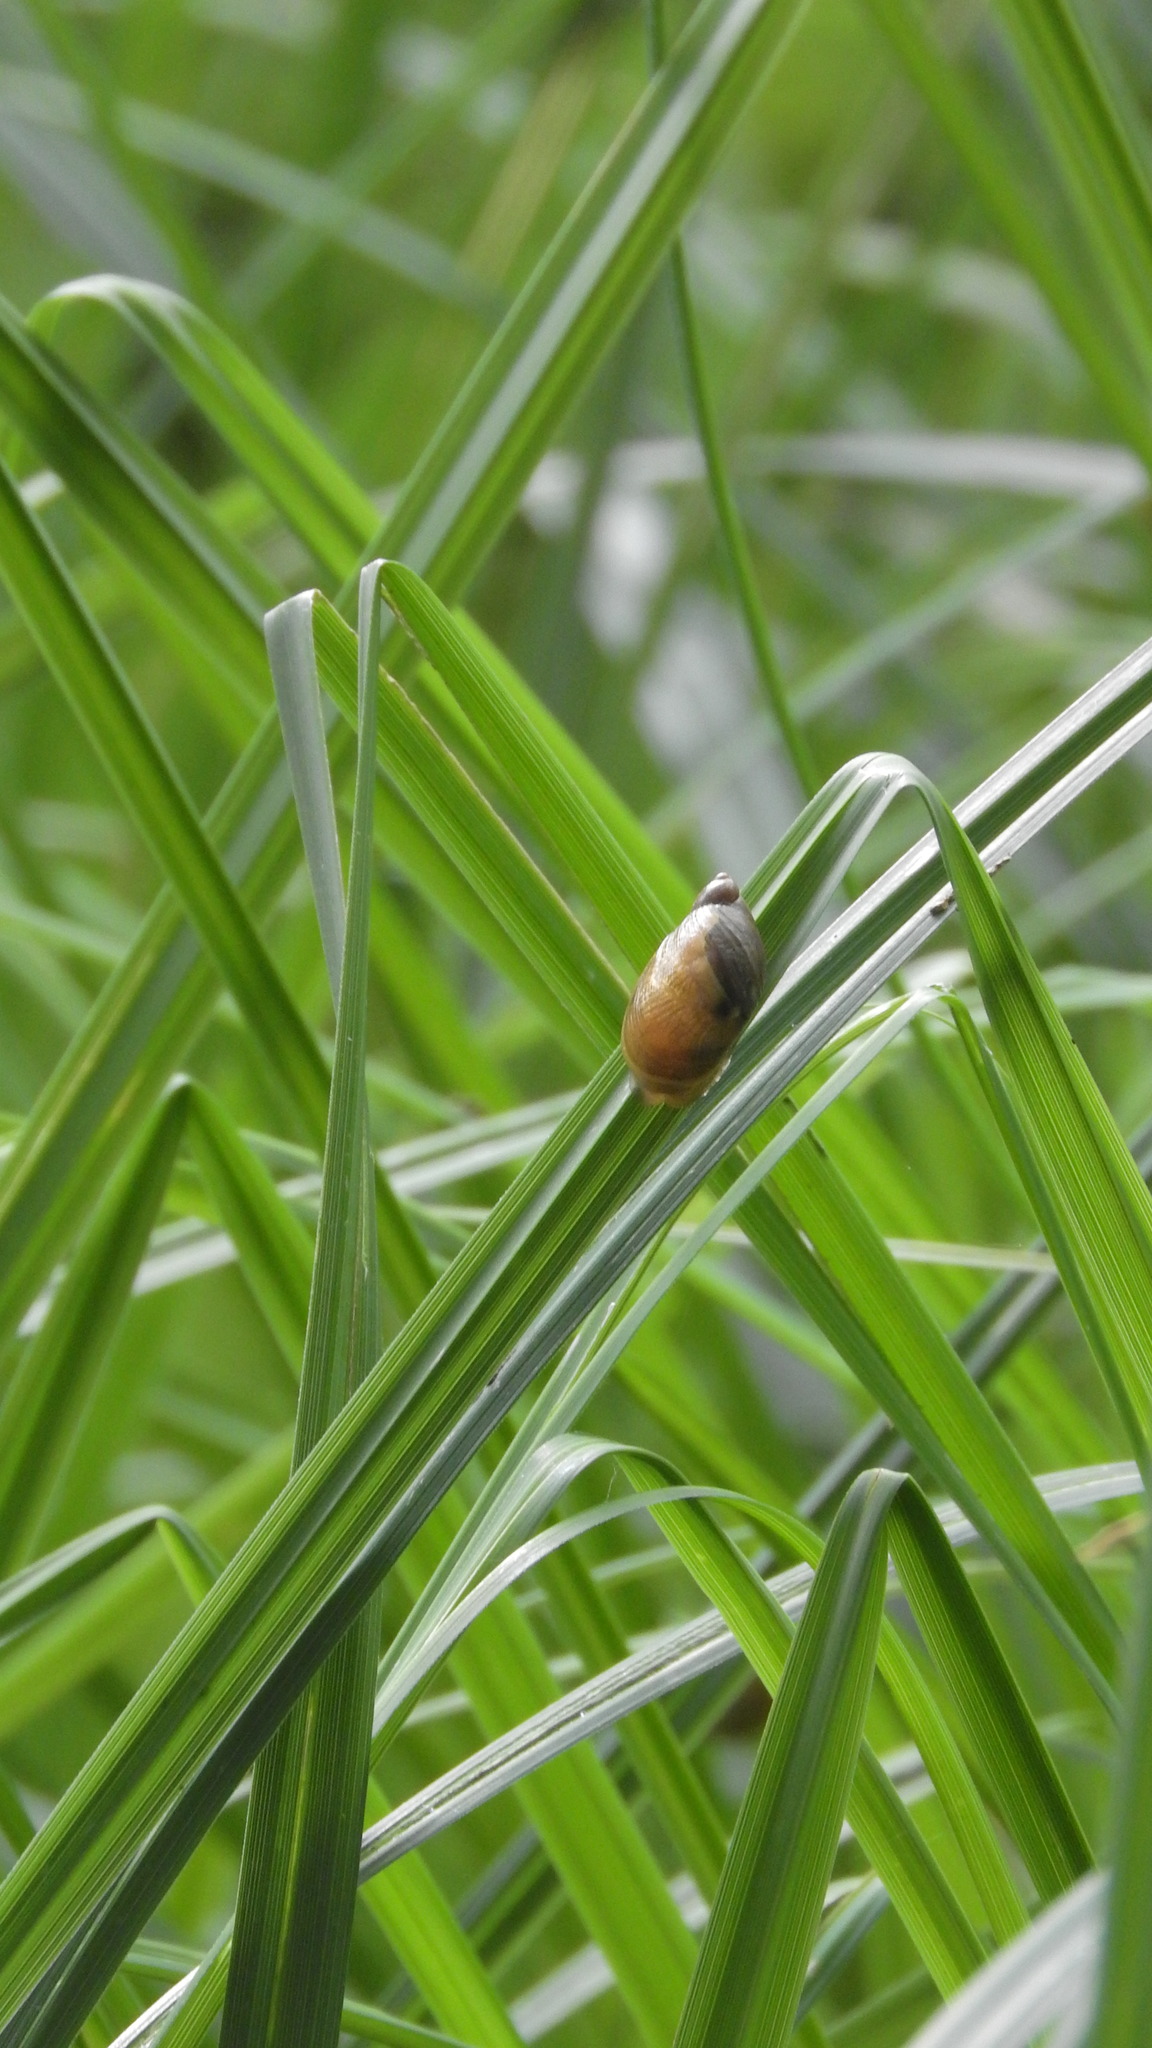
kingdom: Animalia
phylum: Mollusca
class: Gastropoda
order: Stylommatophora
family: Succineidae
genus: Succinea
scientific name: Succinea putris
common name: European ambersnail
